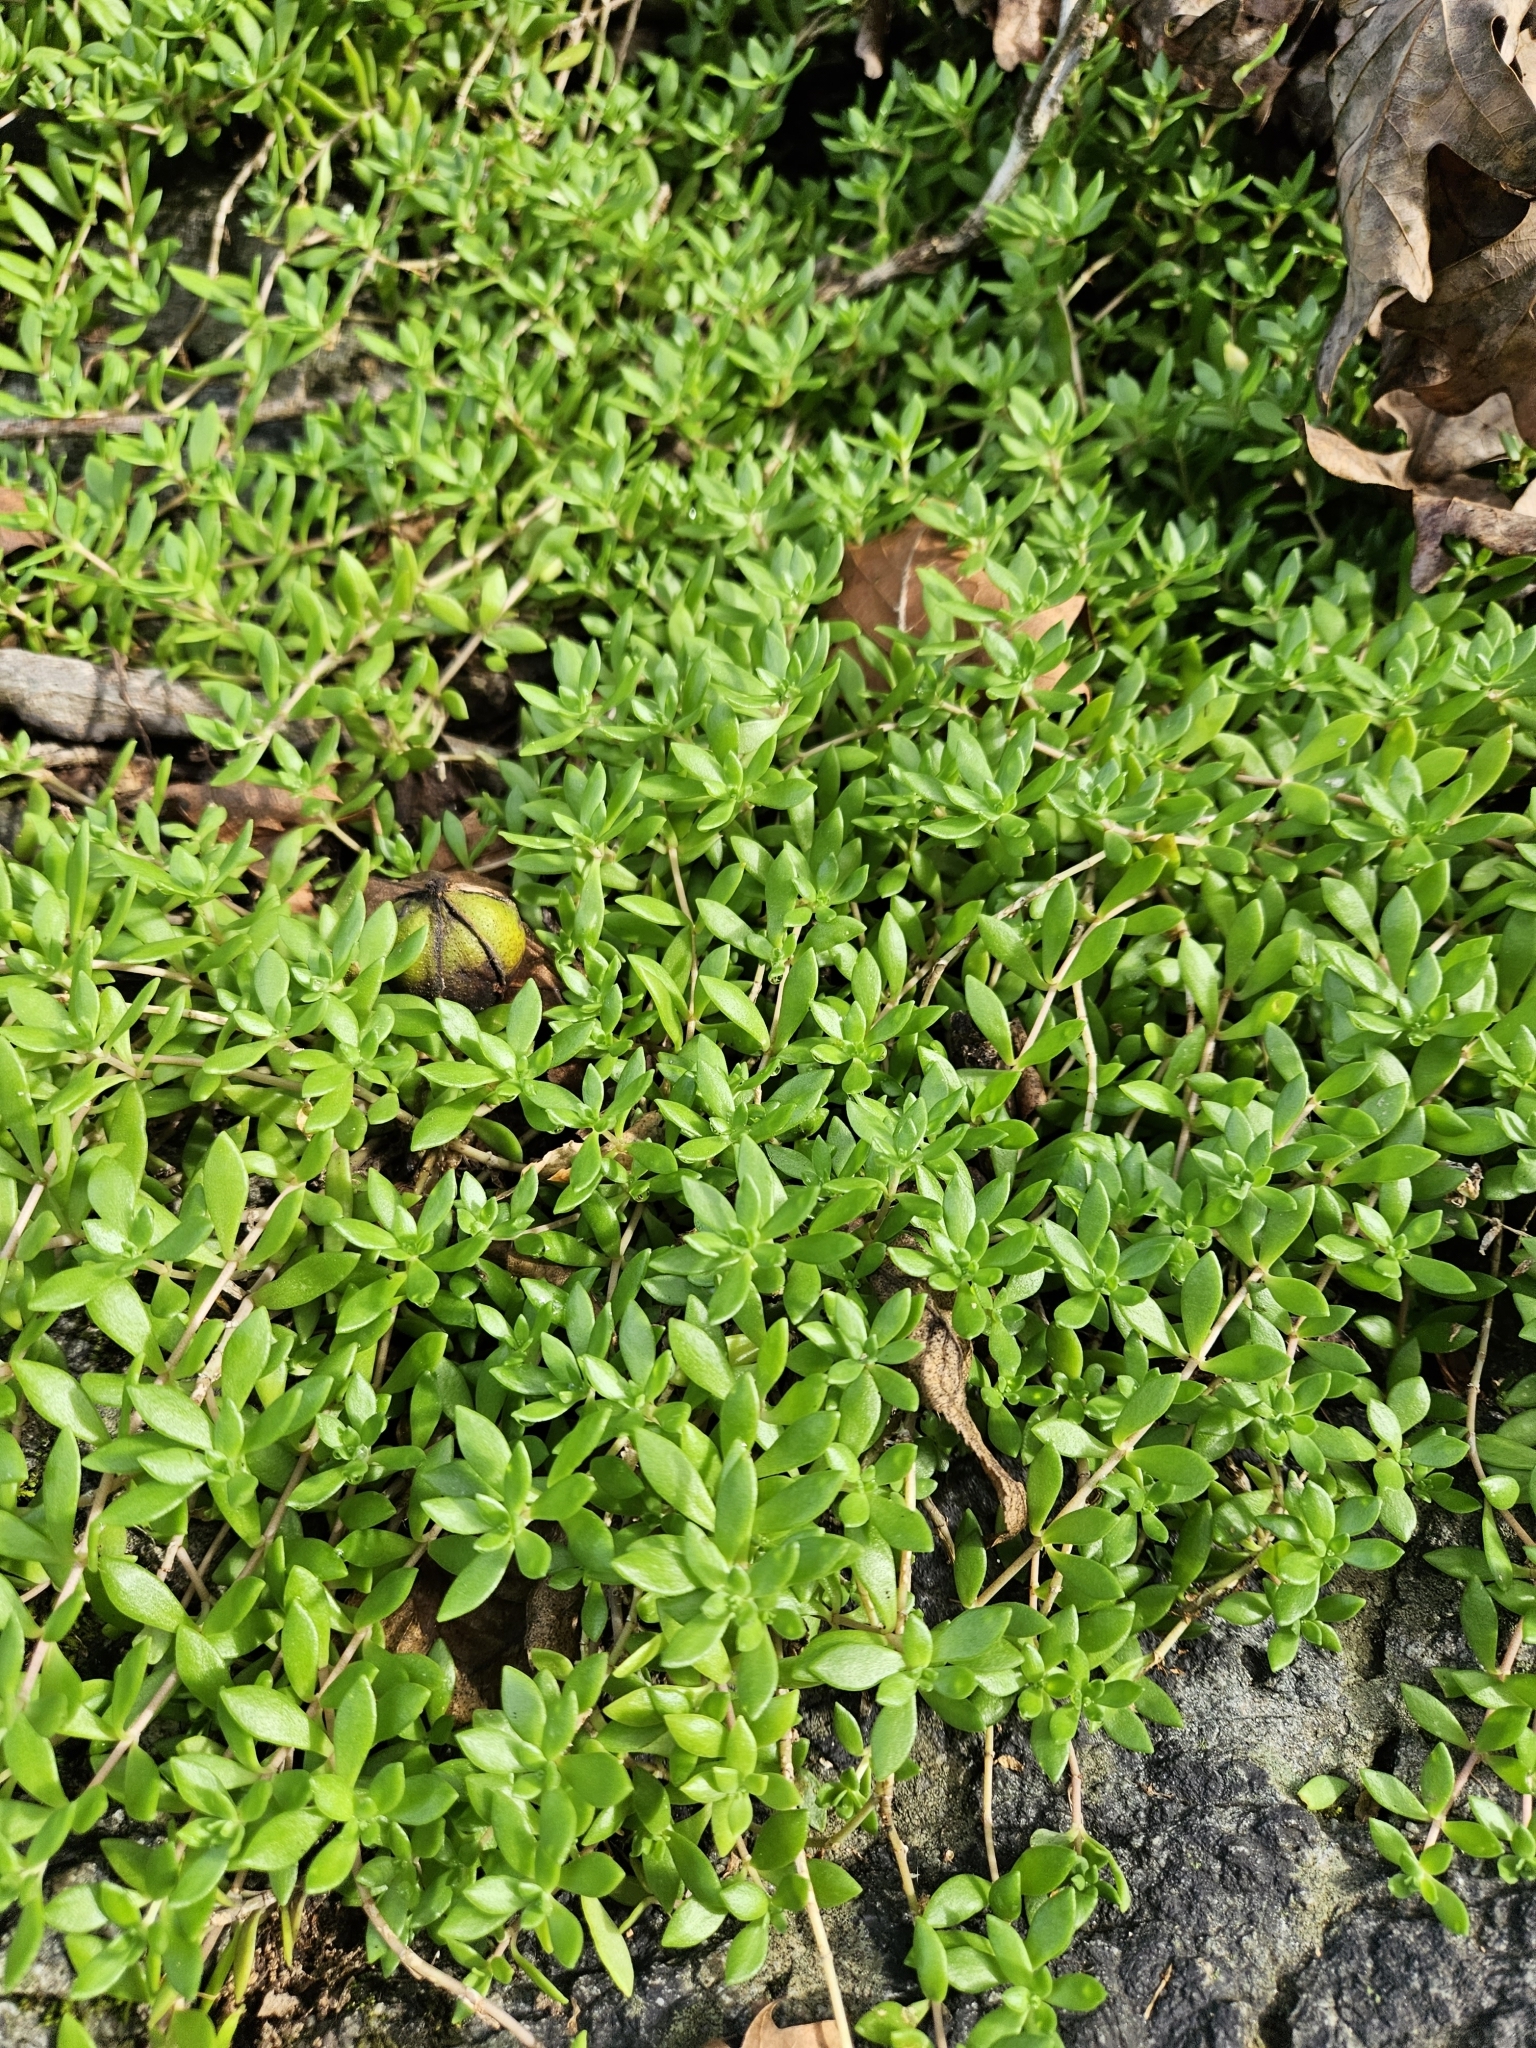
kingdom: Plantae
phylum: Tracheophyta
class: Magnoliopsida
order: Saxifragales
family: Crassulaceae
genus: Sedum
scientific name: Sedum sarmentosum
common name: Stringy stonecrop
